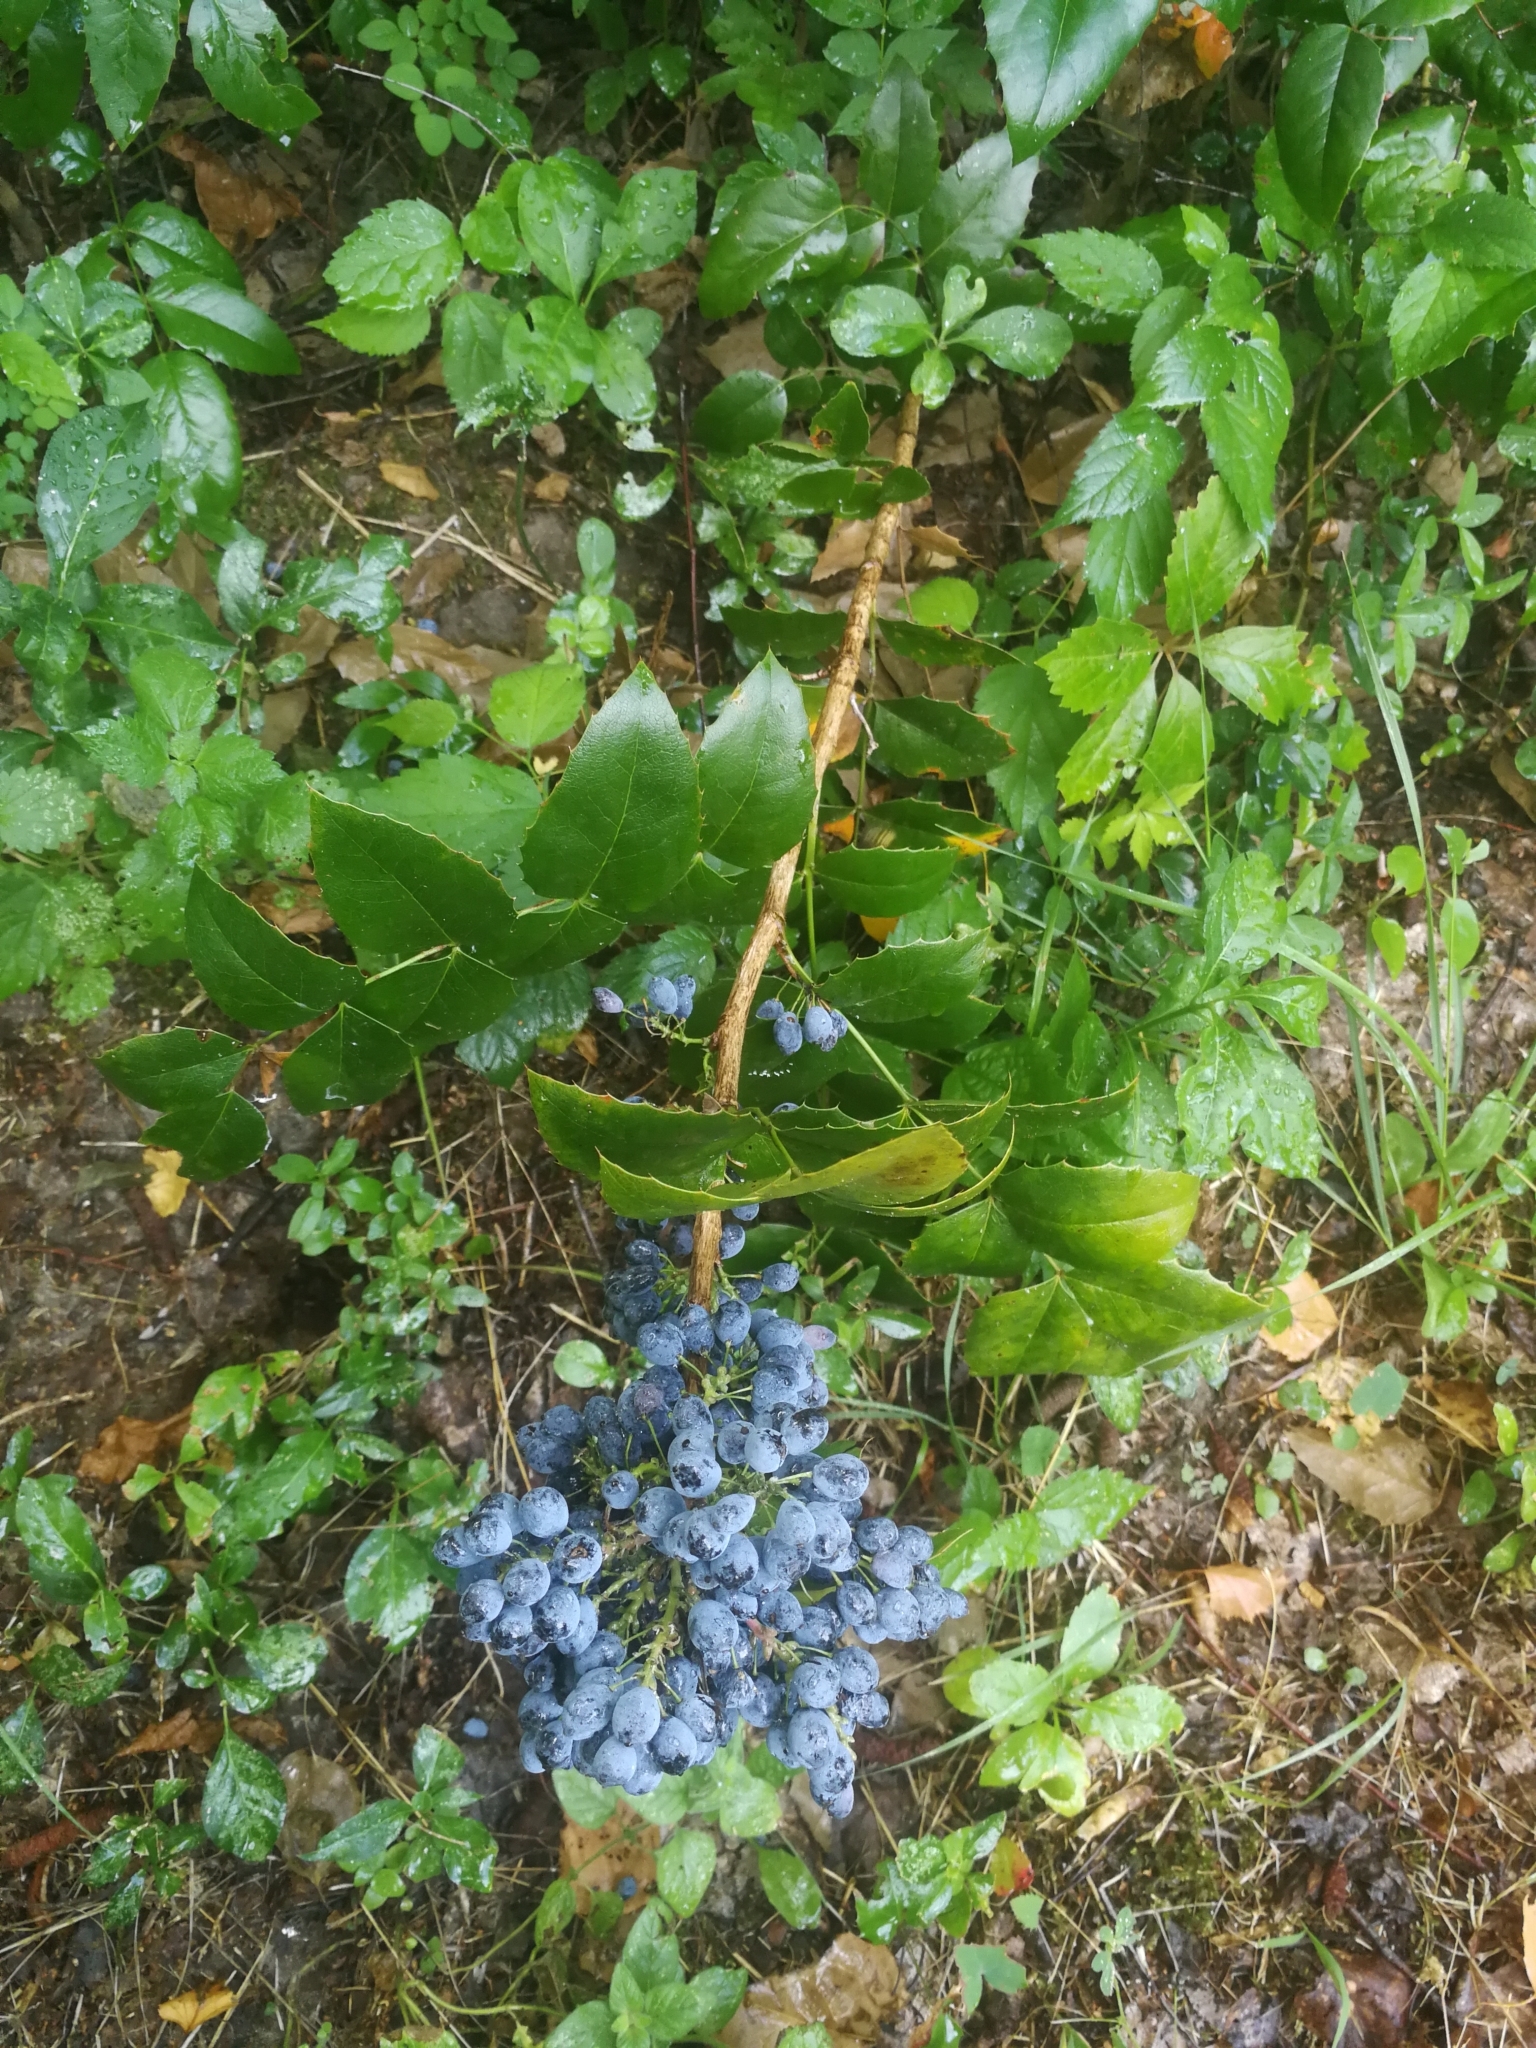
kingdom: Plantae
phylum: Tracheophyta
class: Magnoliopsida
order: Ranunculales
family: Berberidaceae
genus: Mahonia
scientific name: Mahonia aquifolium
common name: Oregon-grape
